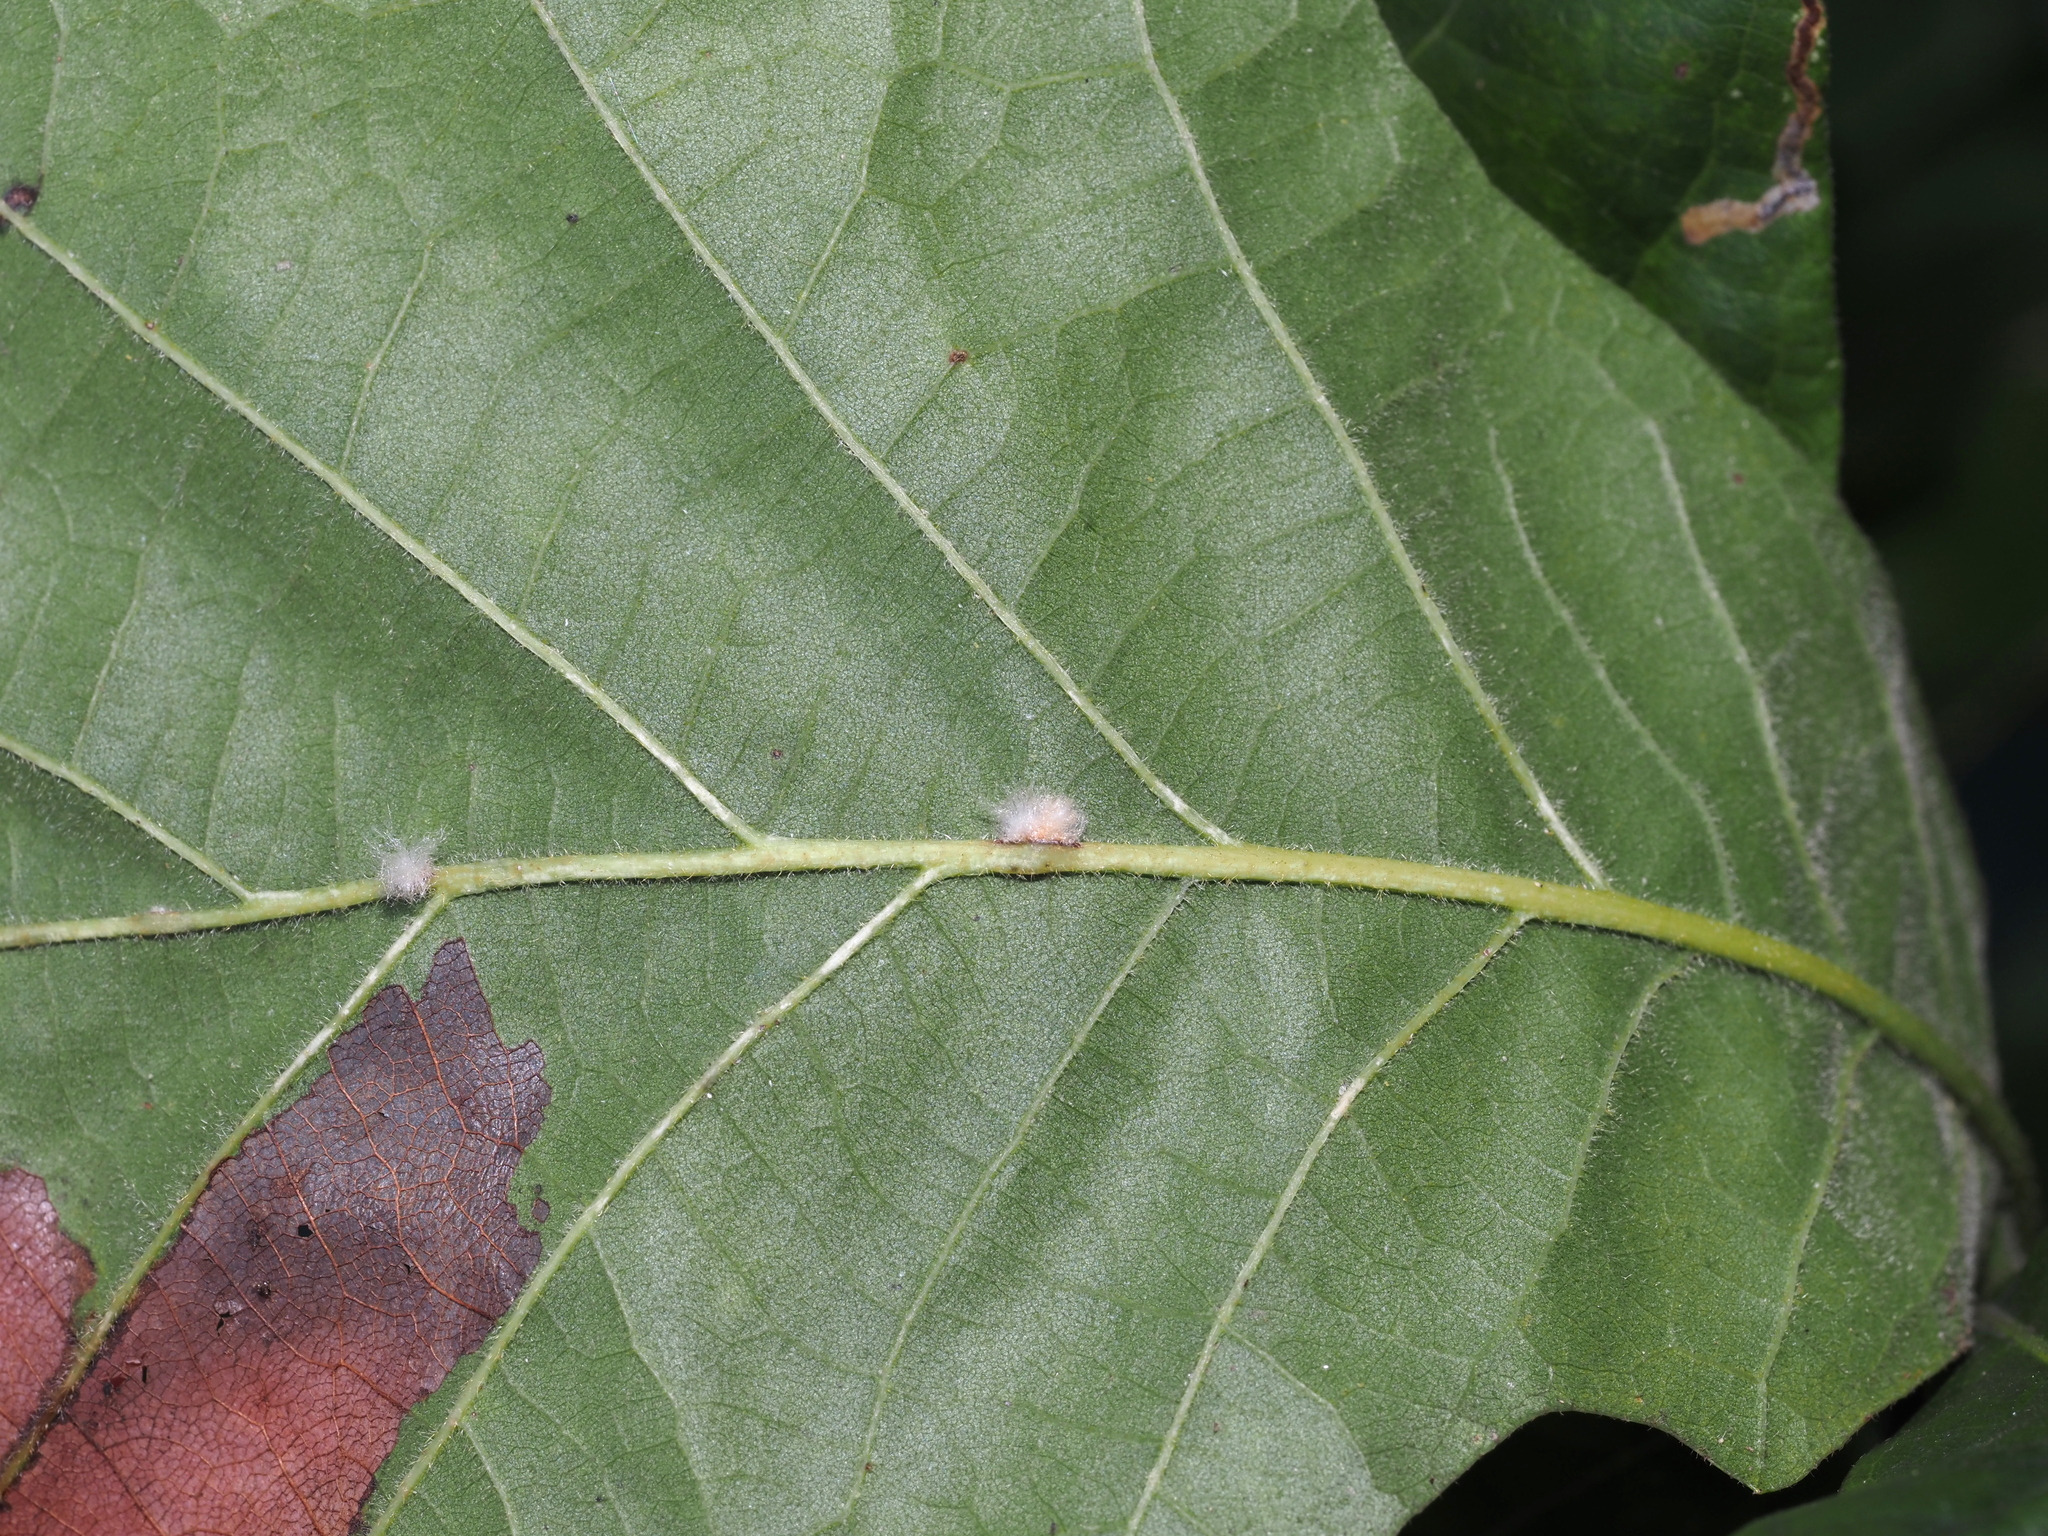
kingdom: Animalia
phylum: Arthropoda
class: Insecta
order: Hymenoptera
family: Cynipidae
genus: Andricus
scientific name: Andricus Druon ignotum
